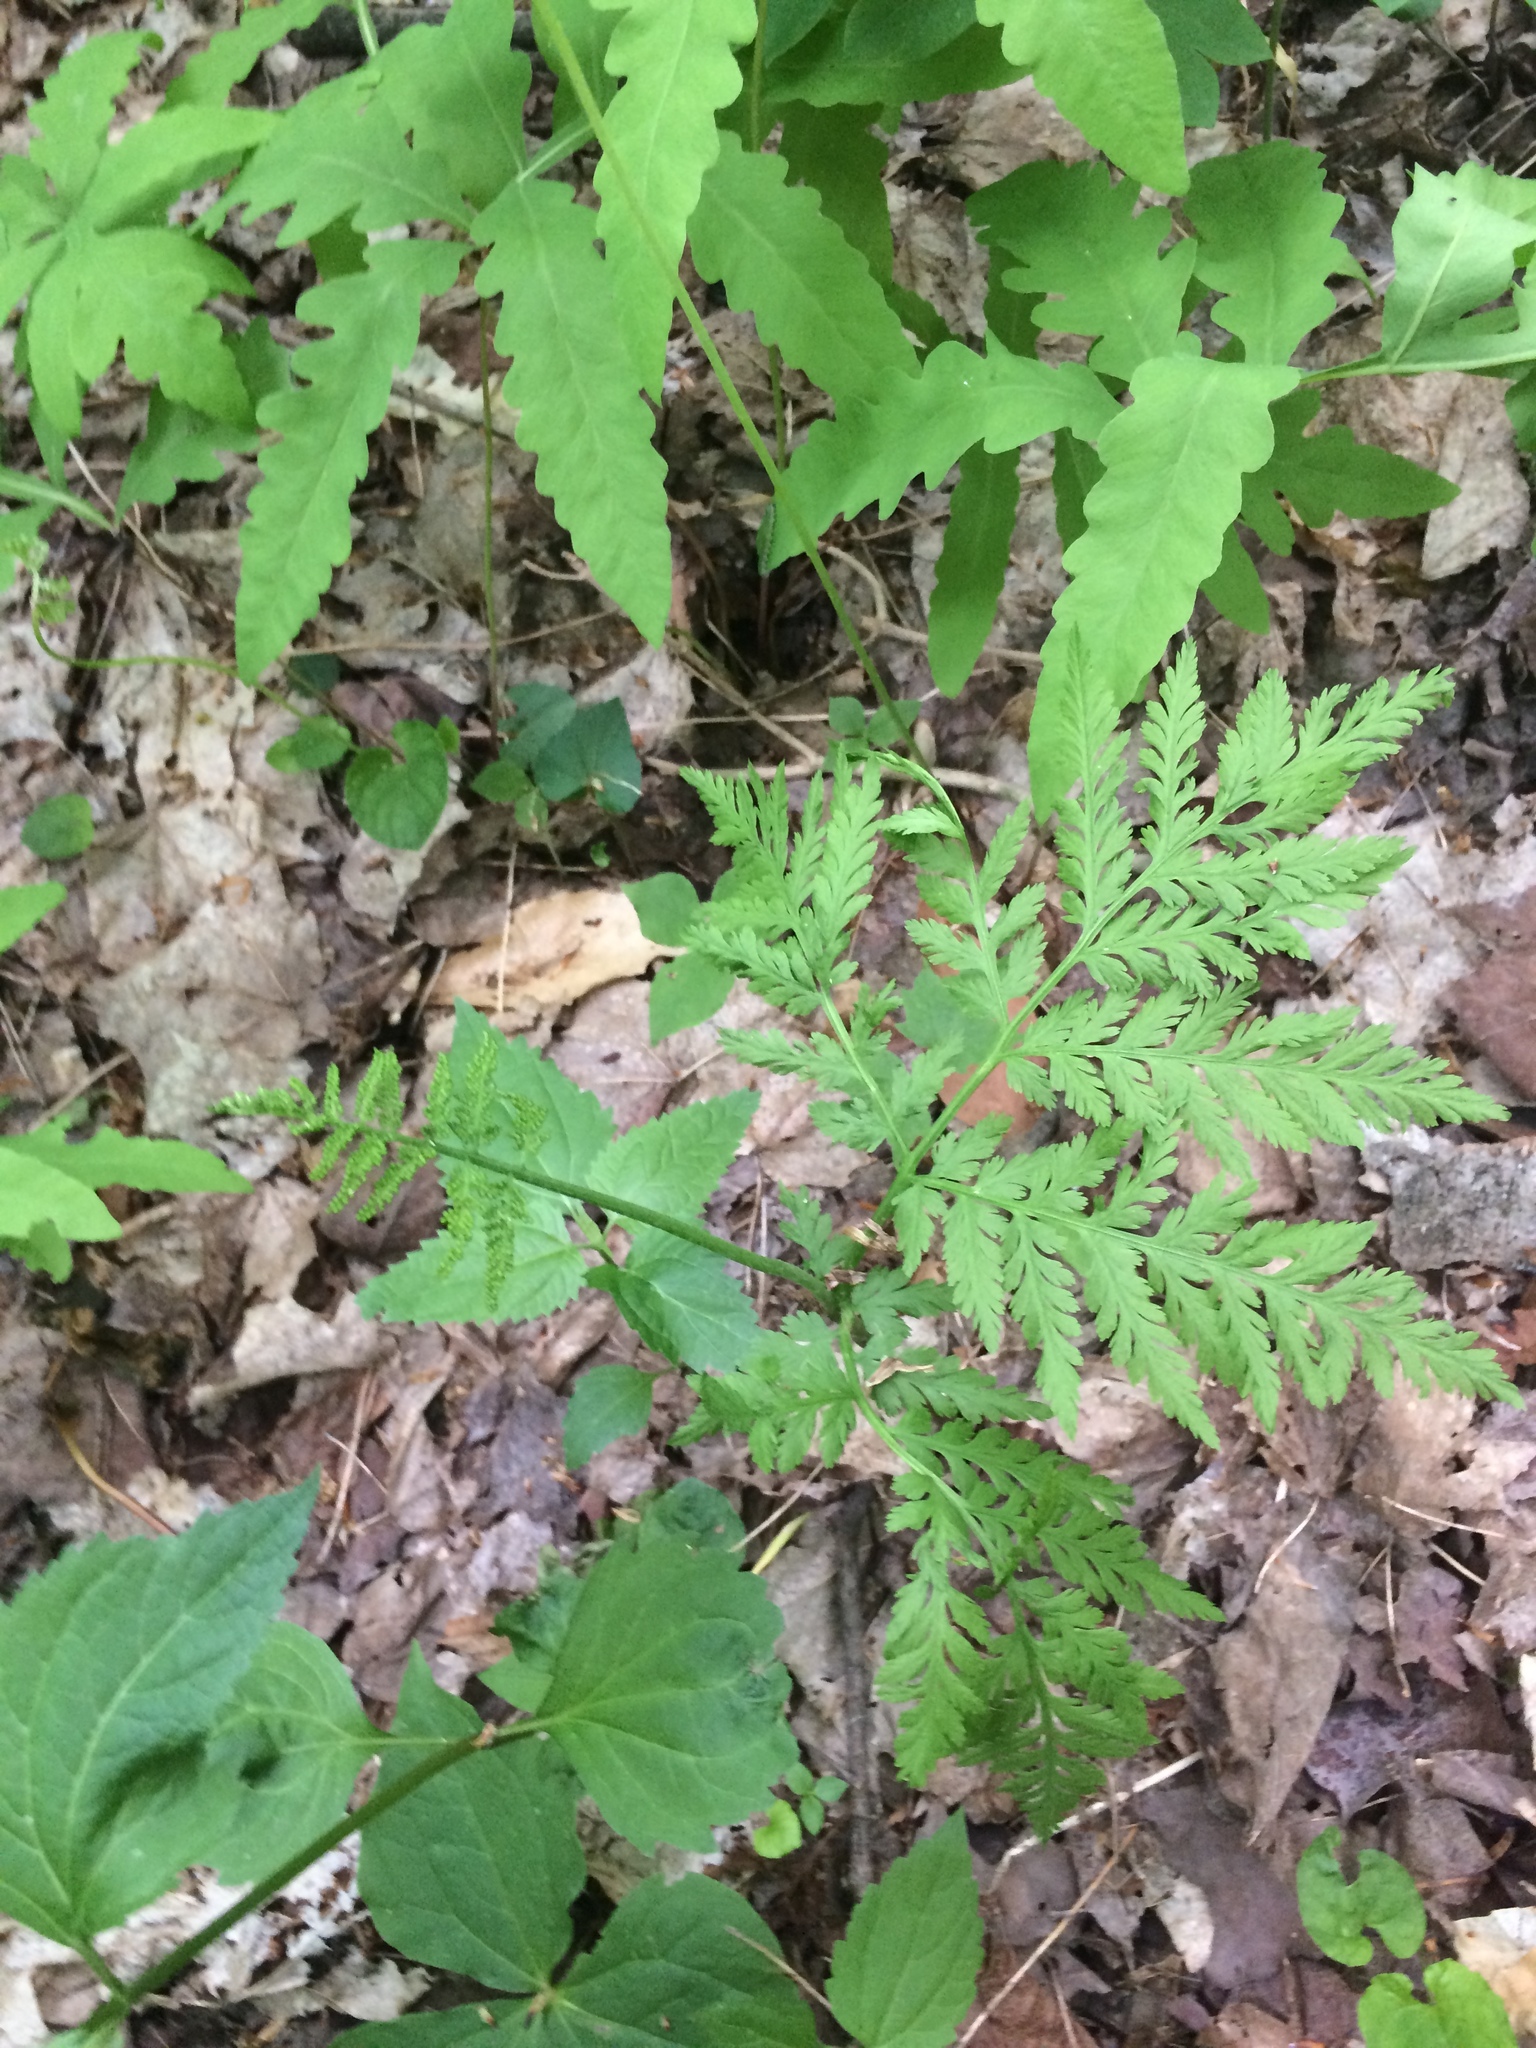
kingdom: Plantae
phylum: Tracheophyta
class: Polypodiopsida
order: Ophioglossales
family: Ophioglossaceae
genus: Botrypus
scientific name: Botrypus virginianus
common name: Common grapefern
